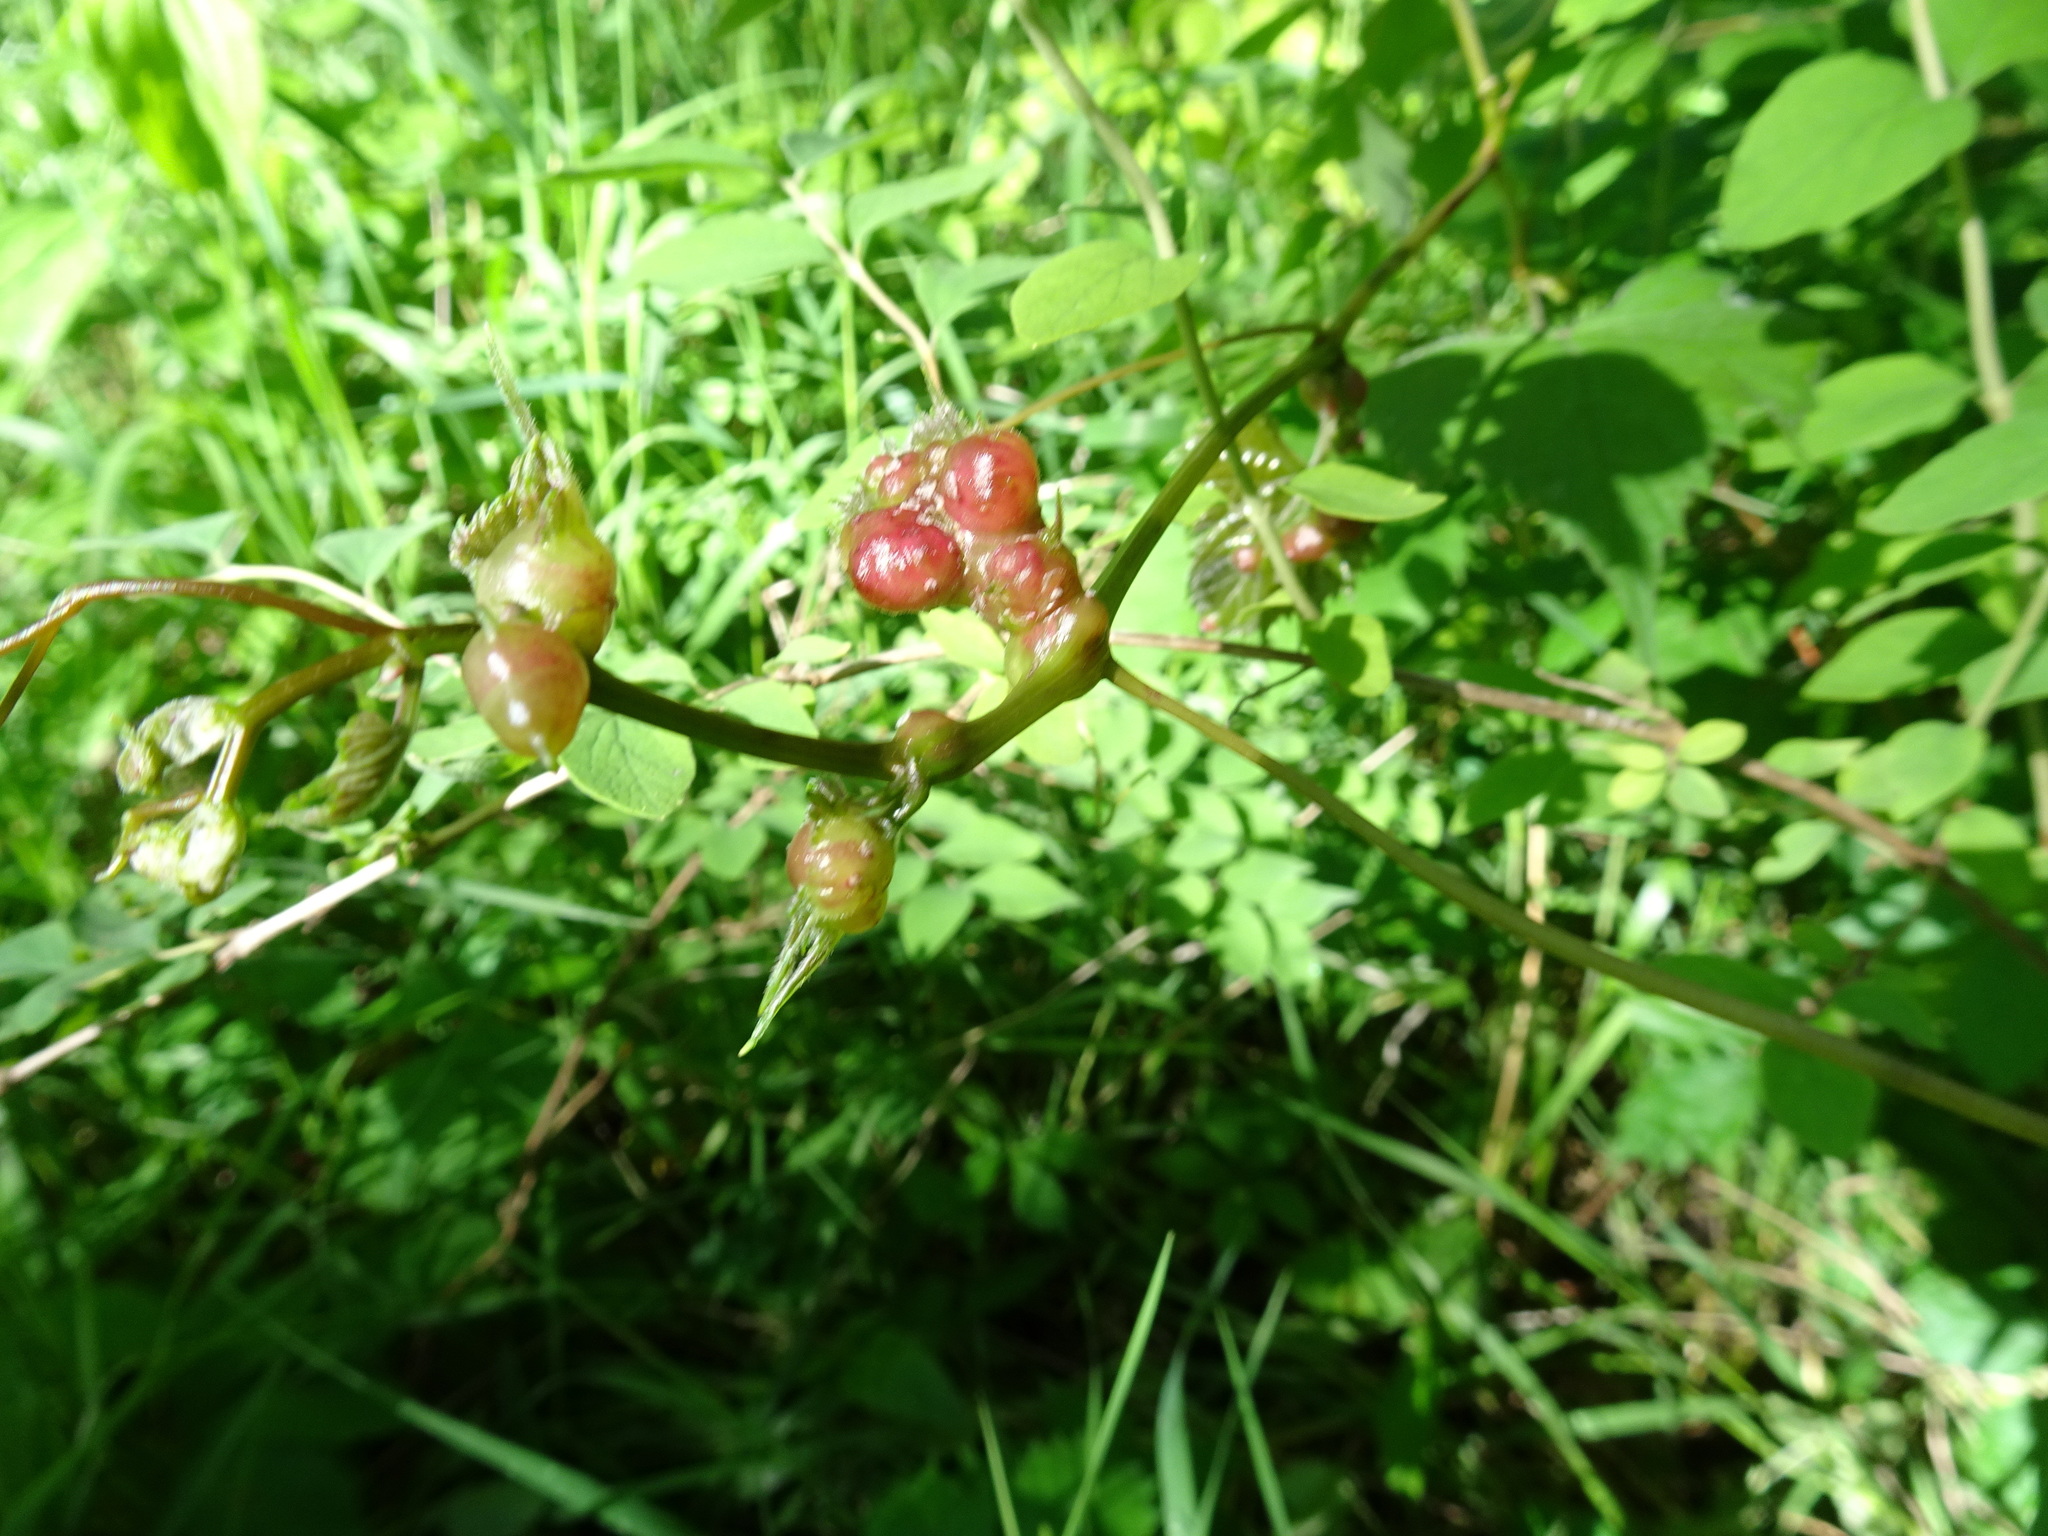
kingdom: Animalia
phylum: Arthropoda
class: Insecta
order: Diptera
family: Cecidomyiidae
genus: Vitisiella
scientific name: Vitisiella brevicauda
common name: Grape tumid gallmaker midge
